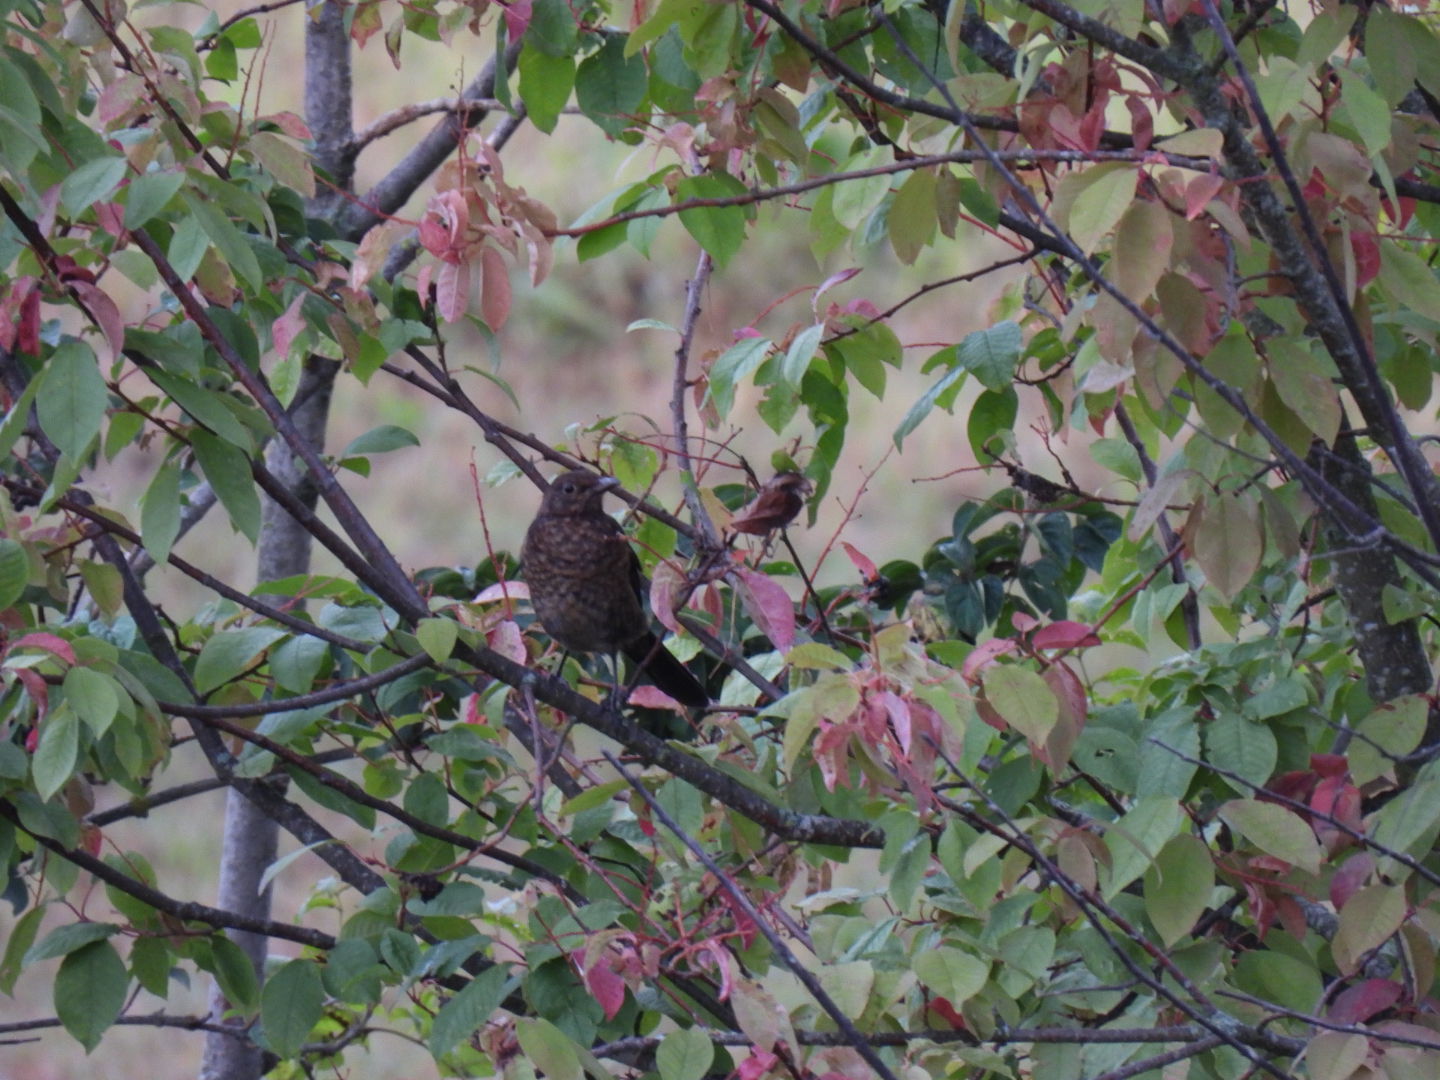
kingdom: Animalia
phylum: Chordata
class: Aves
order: Passeriformes
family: Turdidae
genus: Turdus
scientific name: Turdus merula
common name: Common blackbird
